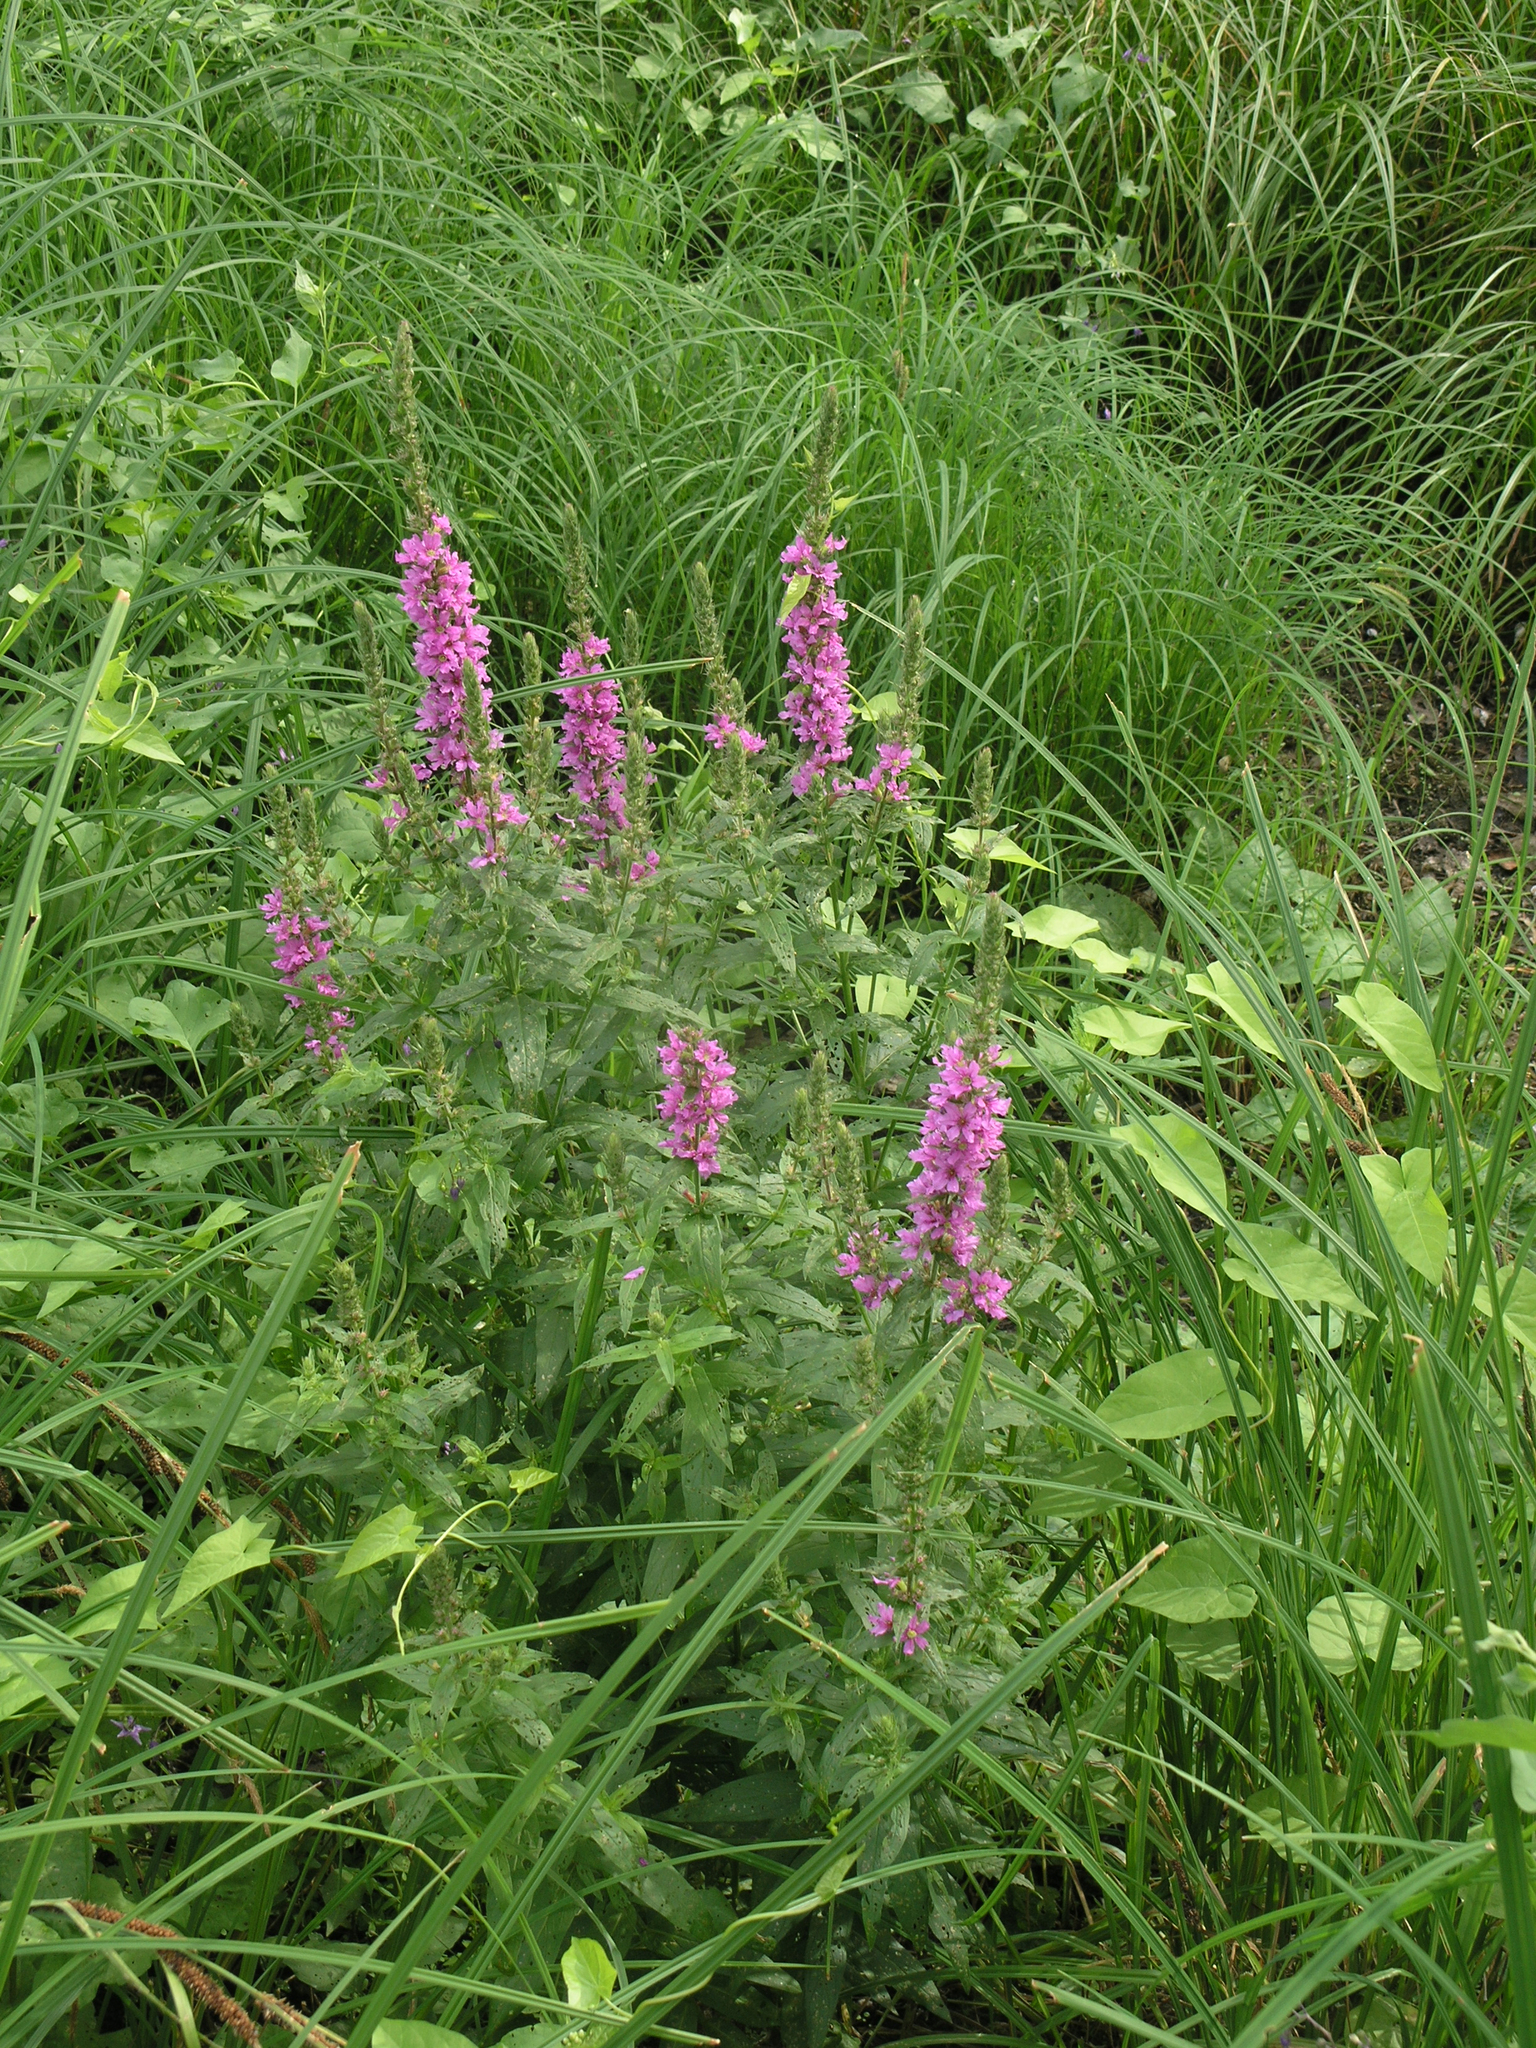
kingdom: Plantae
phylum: Tracheophyta
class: Magnoliopsida
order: Myrtales
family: Lythraceae
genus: Lythrum
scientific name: Lythrum salicaria
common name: Purple loosestrife
